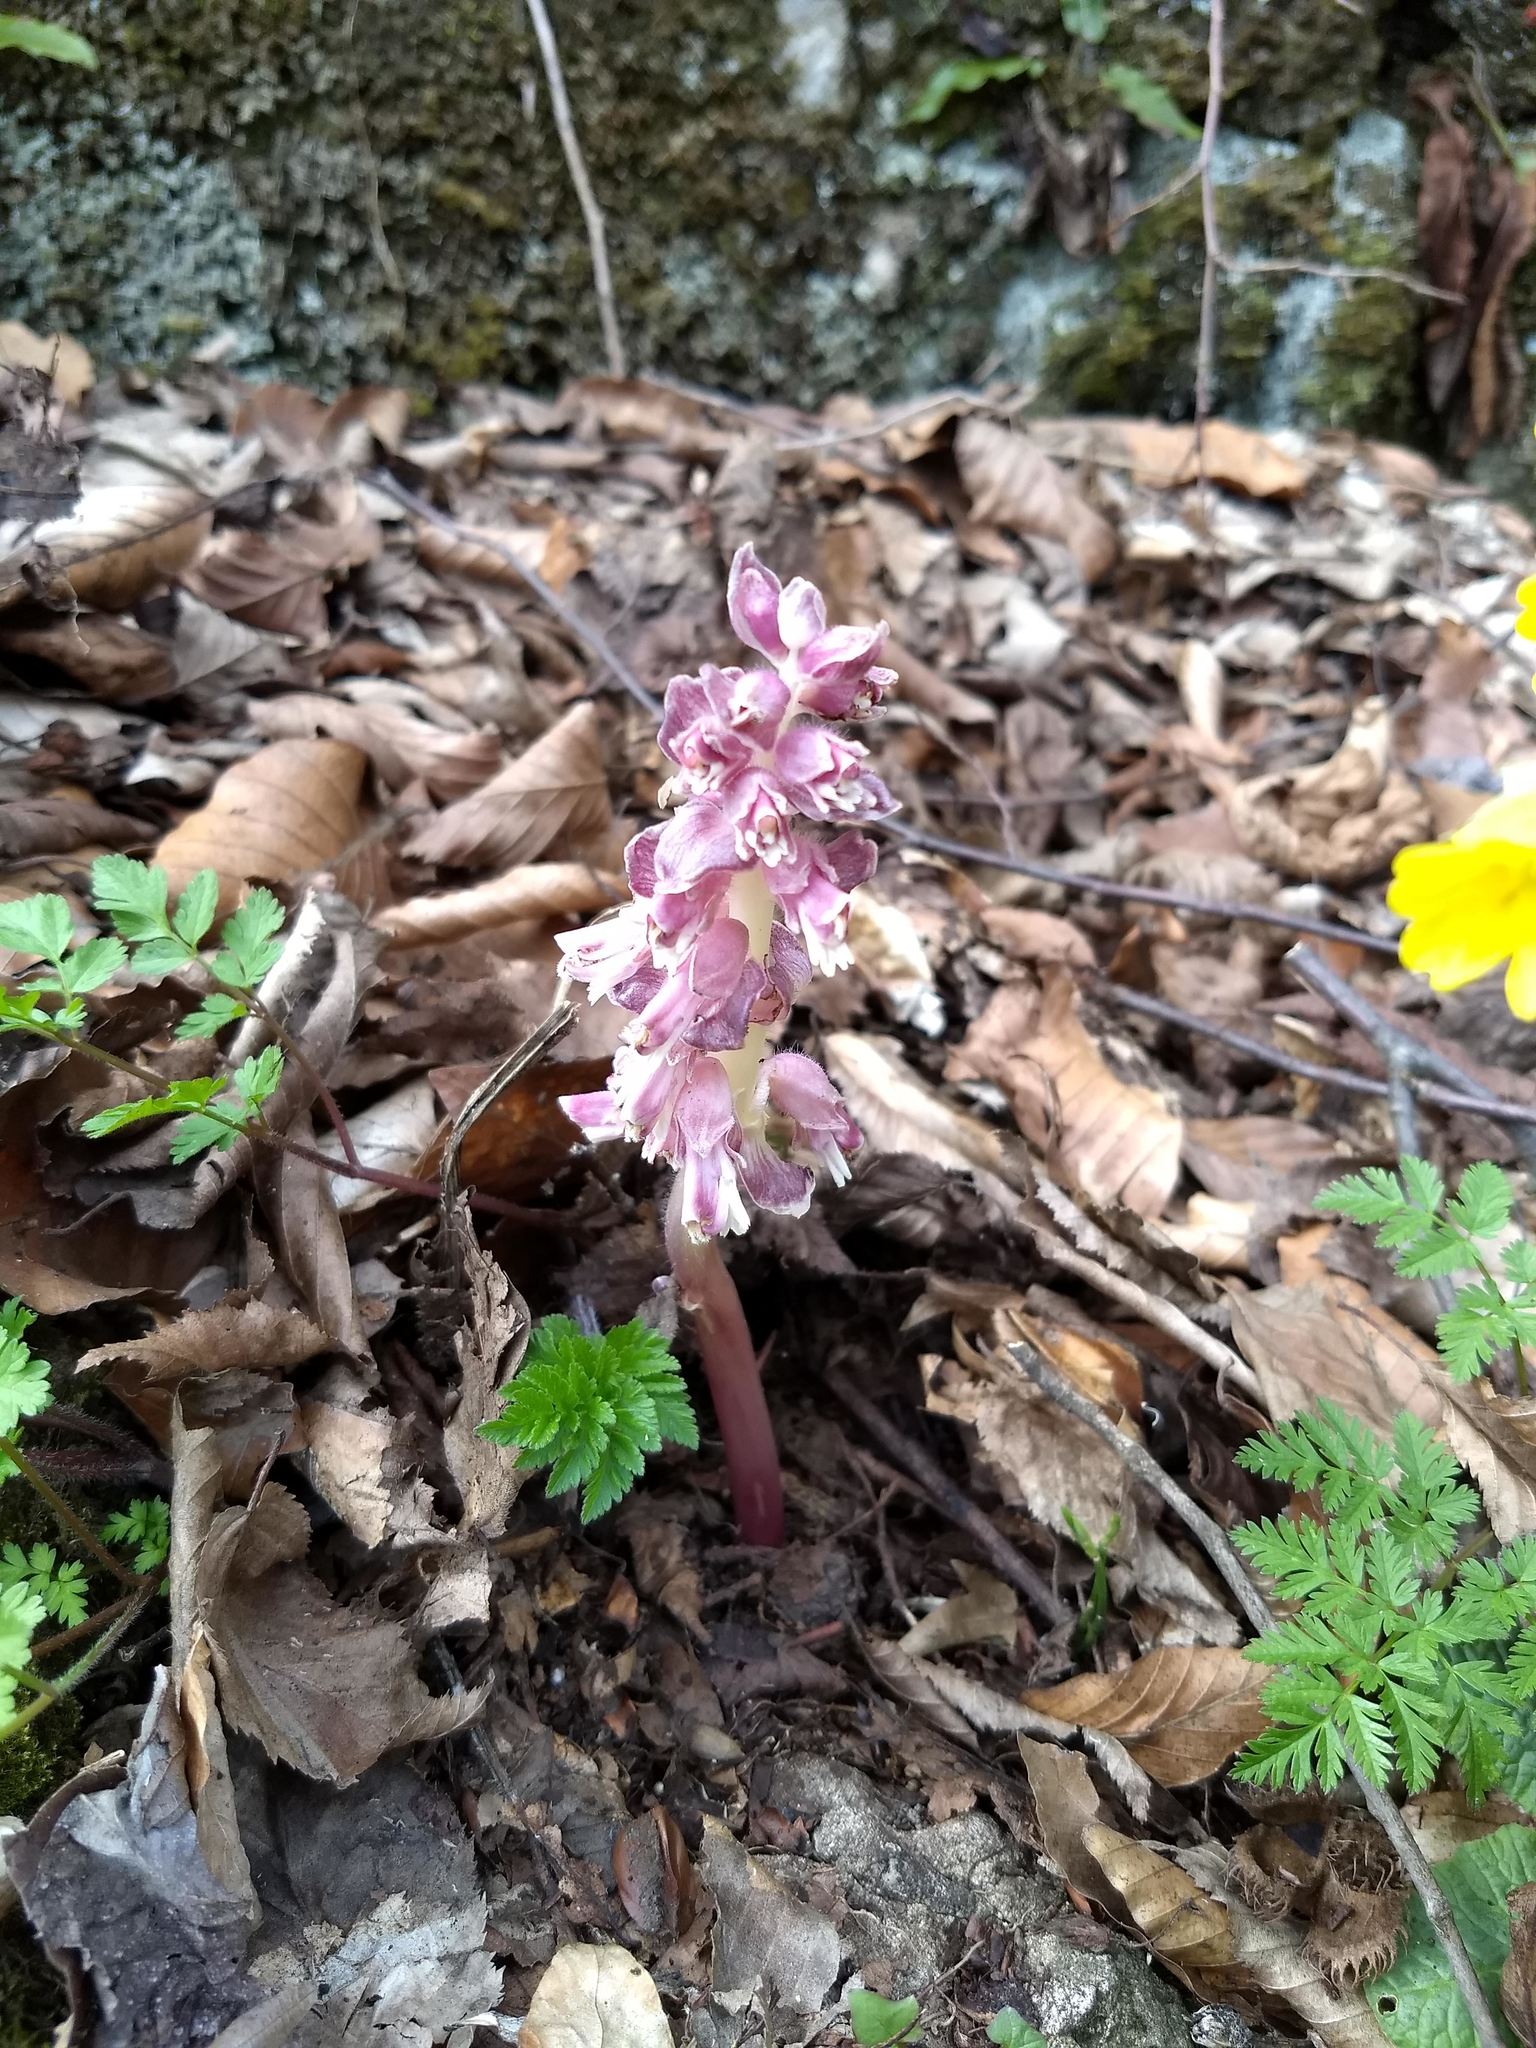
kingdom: Plantae
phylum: Tracheophyta
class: Magnoliopsida
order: Lamiales
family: Orobanchaceae
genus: Lathraea
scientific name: Lathraea squamaria
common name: Toothwort
